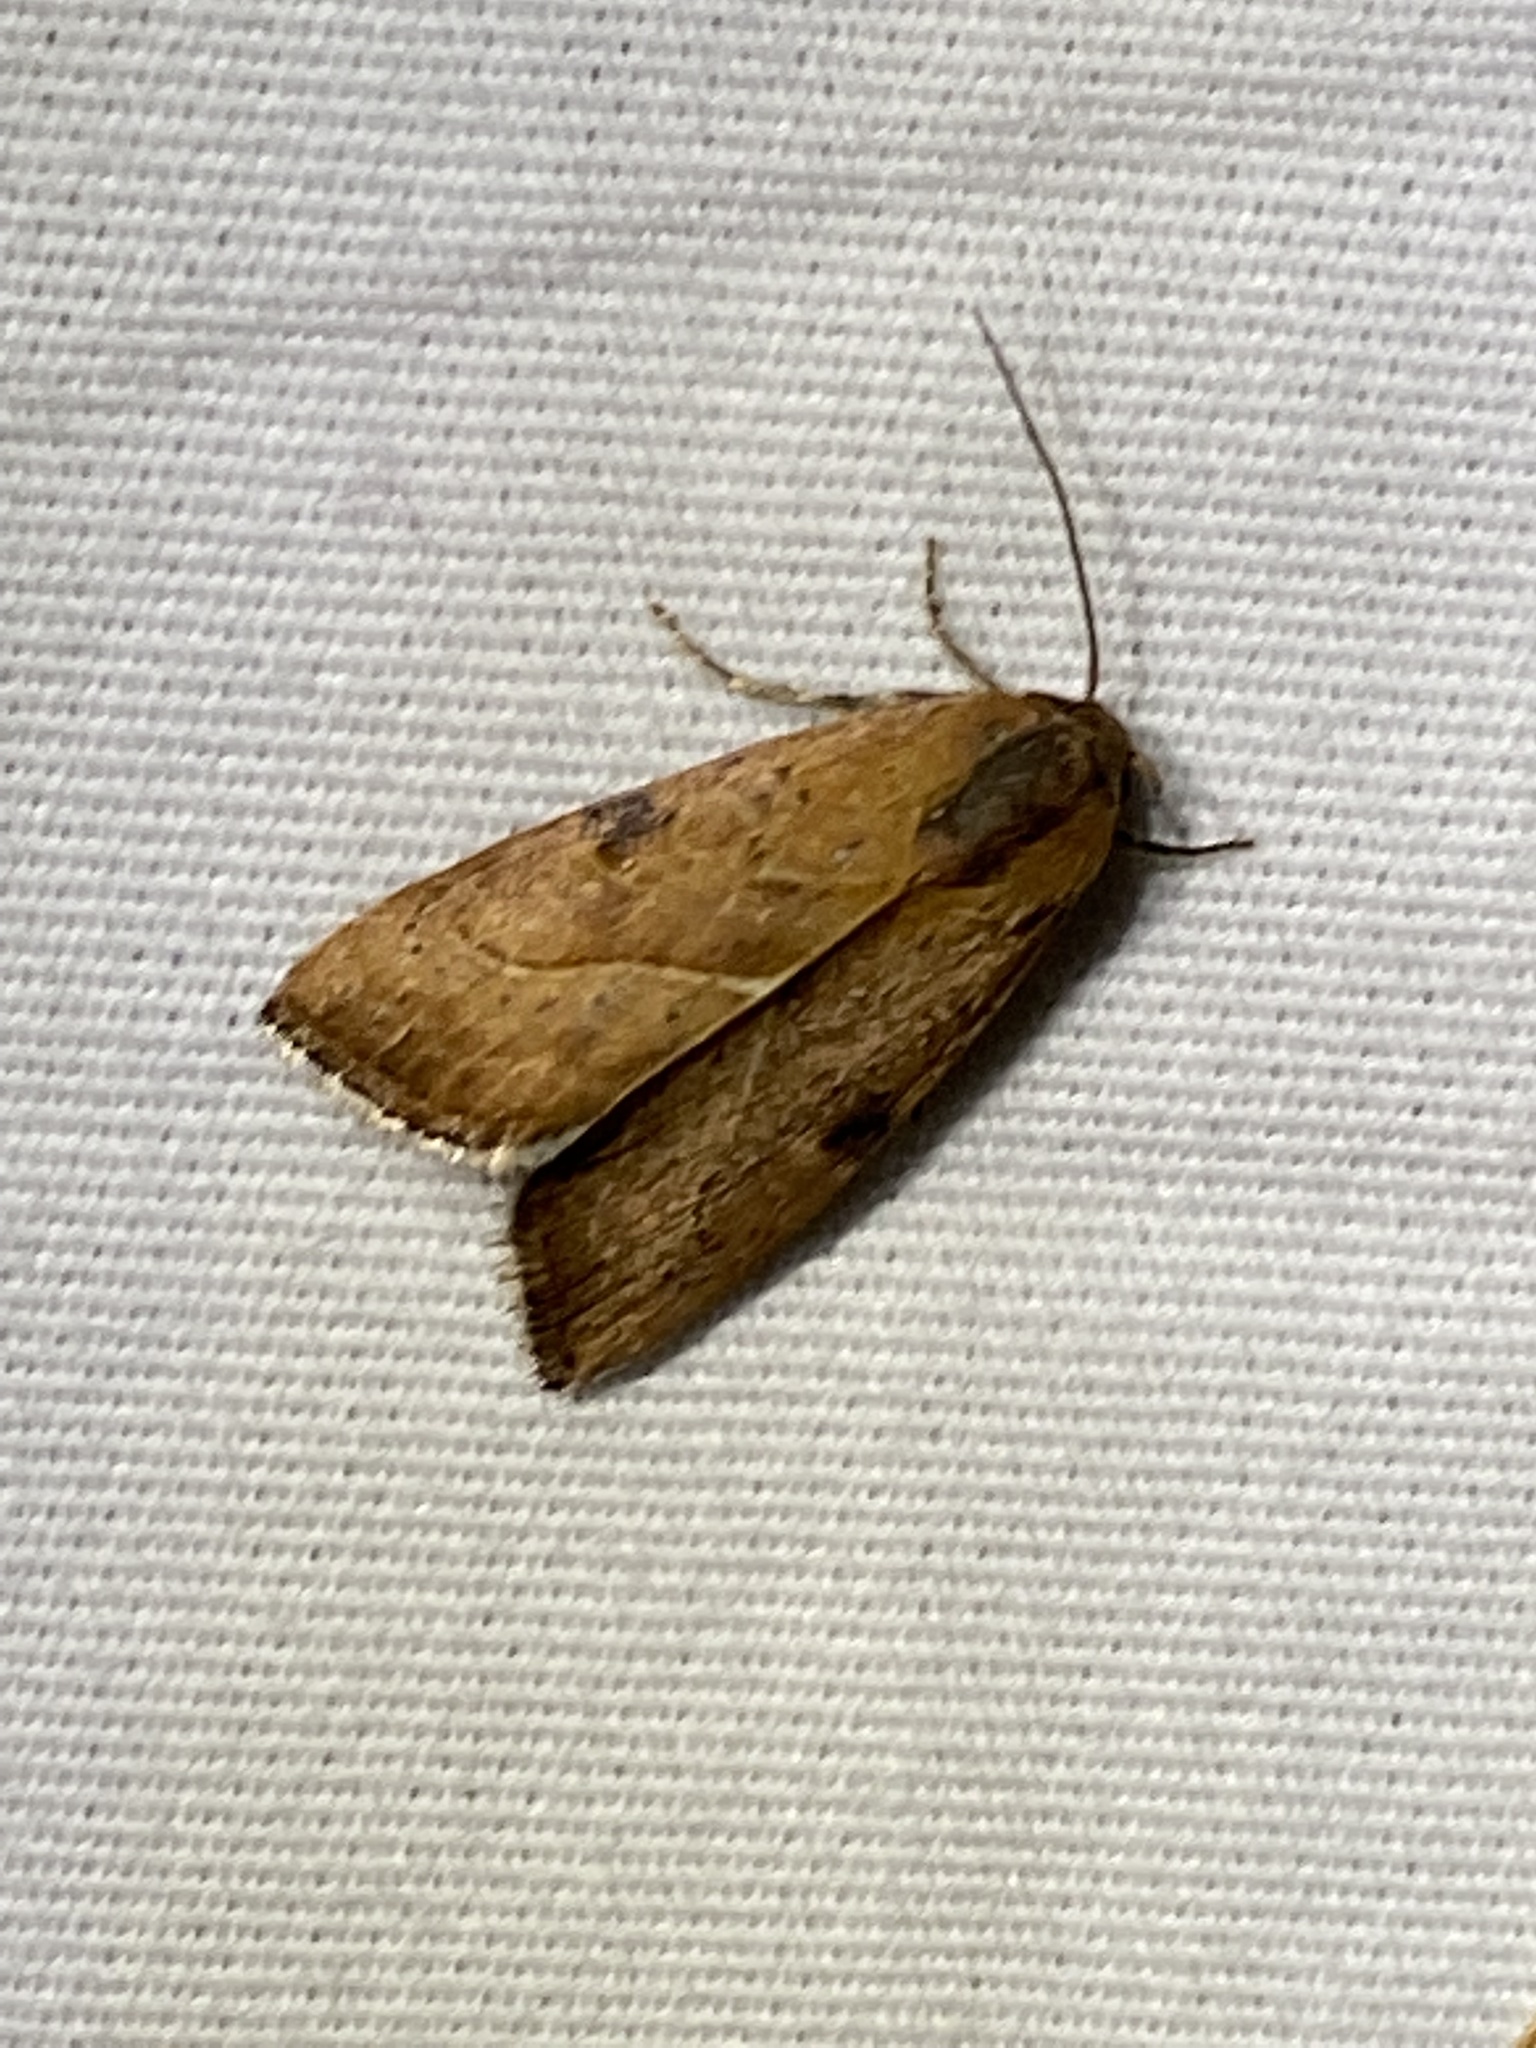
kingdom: Animalia
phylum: Arthropoda
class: Insecta
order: Lepidoptera
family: Noctuidae
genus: Galgula
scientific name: Galgula partita
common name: Wedgeling
